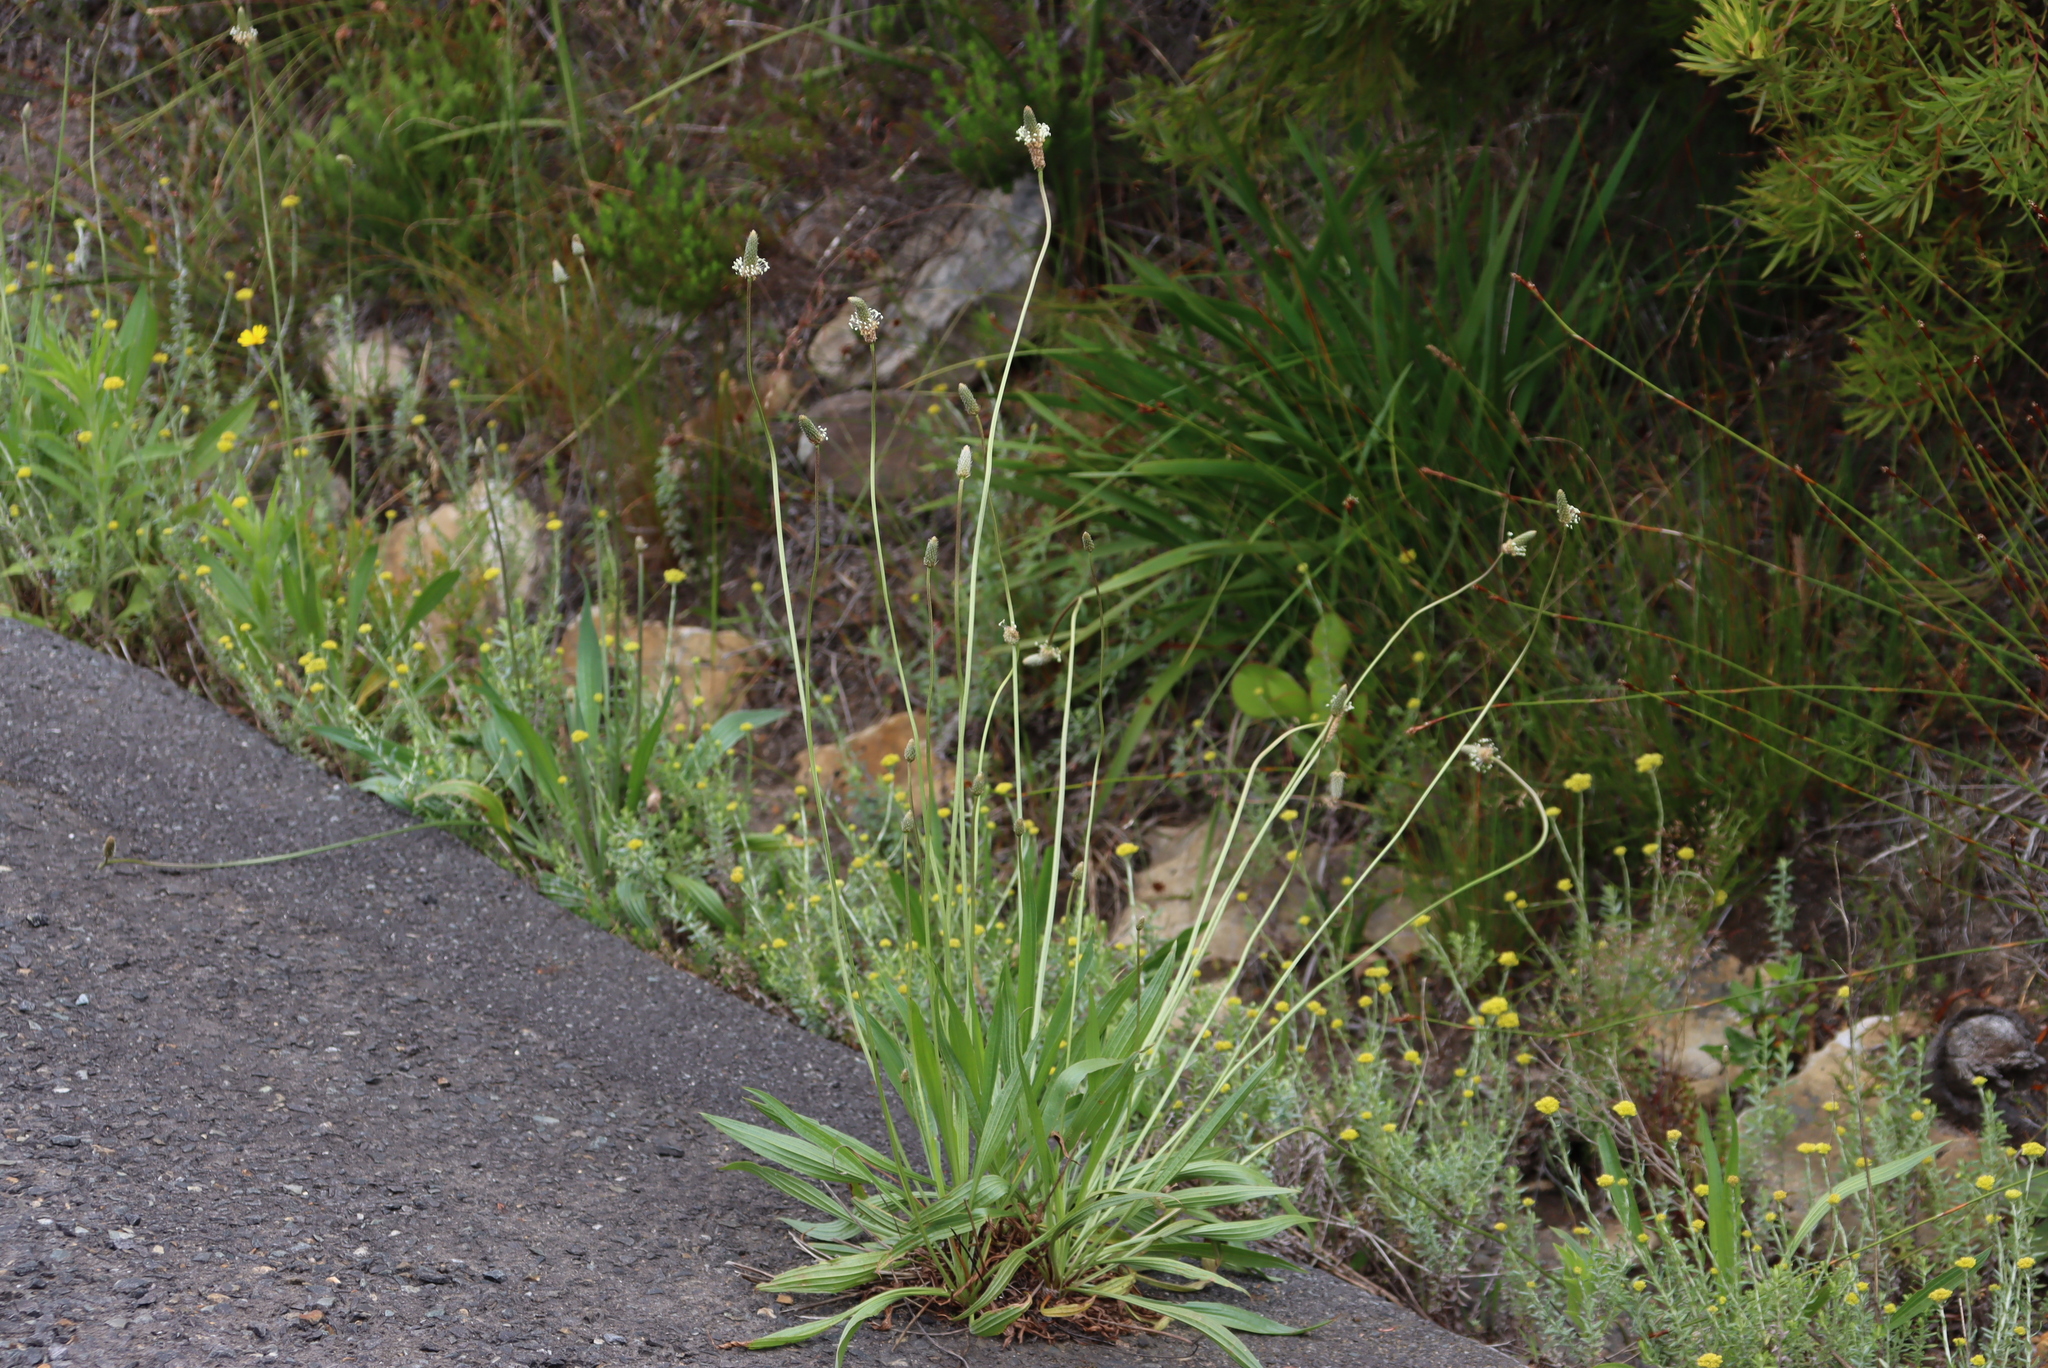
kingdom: Plantae
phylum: Tracheophyta
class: Magnoliopsida
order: Lamiales
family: Plantaginaceae
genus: Plantago
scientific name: Plantago lanceolata
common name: Ribwort plantain
